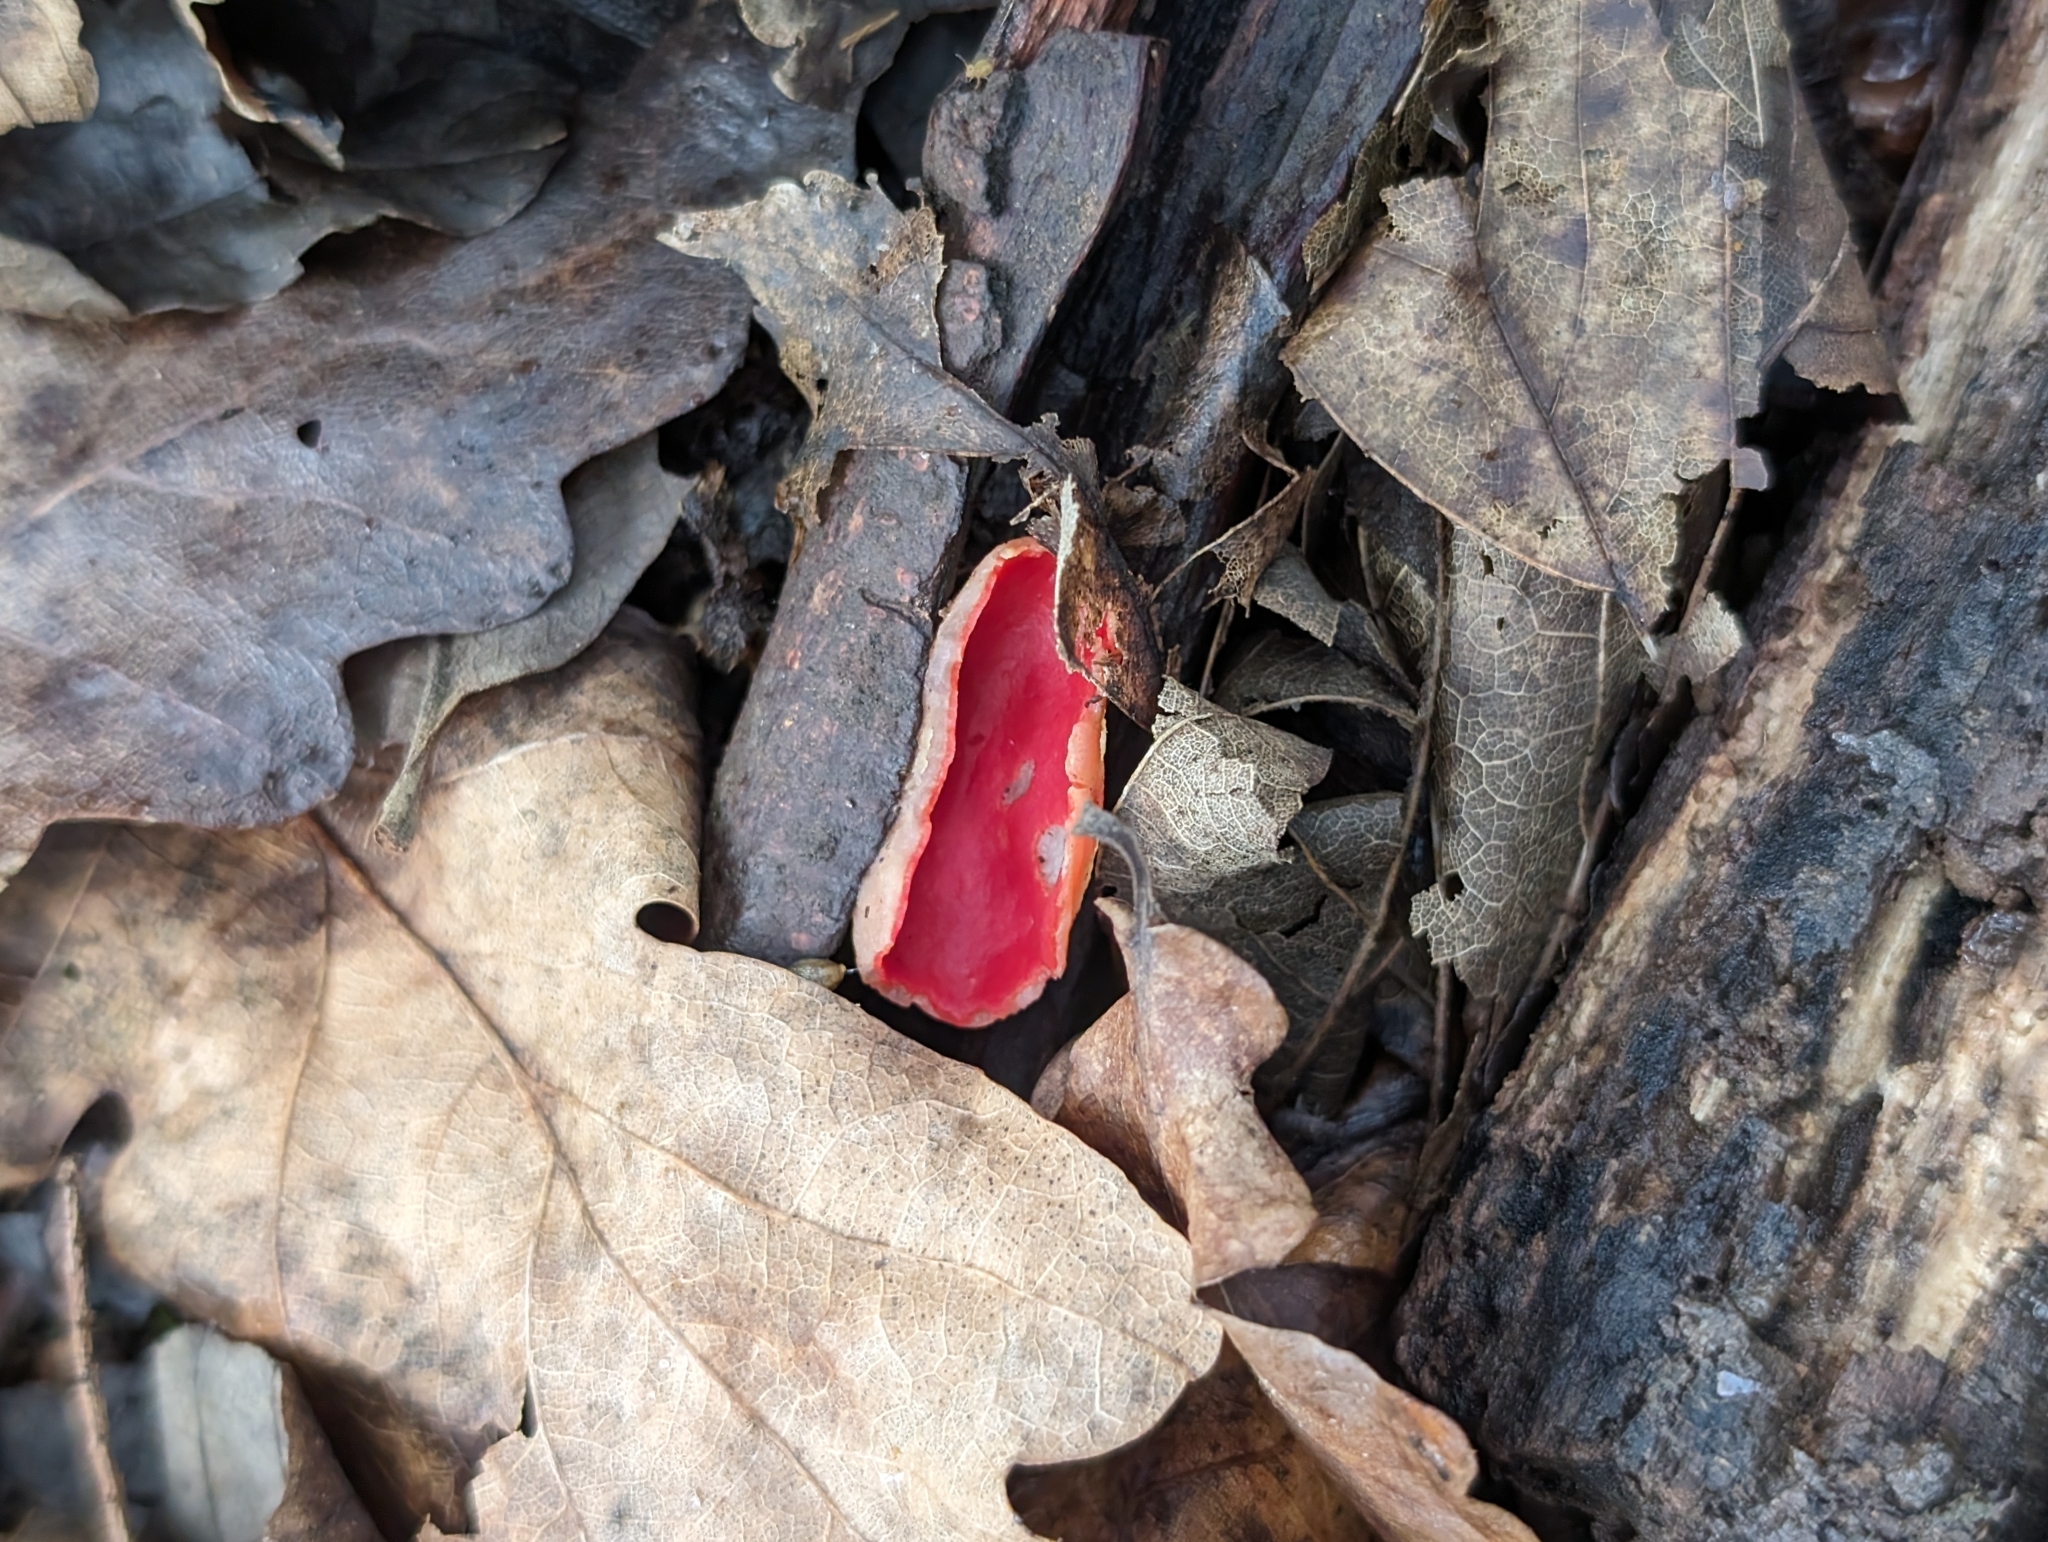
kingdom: Fungi
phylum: Ascomycota
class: Pezizomycetes
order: Pezizales
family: Sarcoscyphaceae
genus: Sarcoscypha
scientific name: Sarcoscypha
